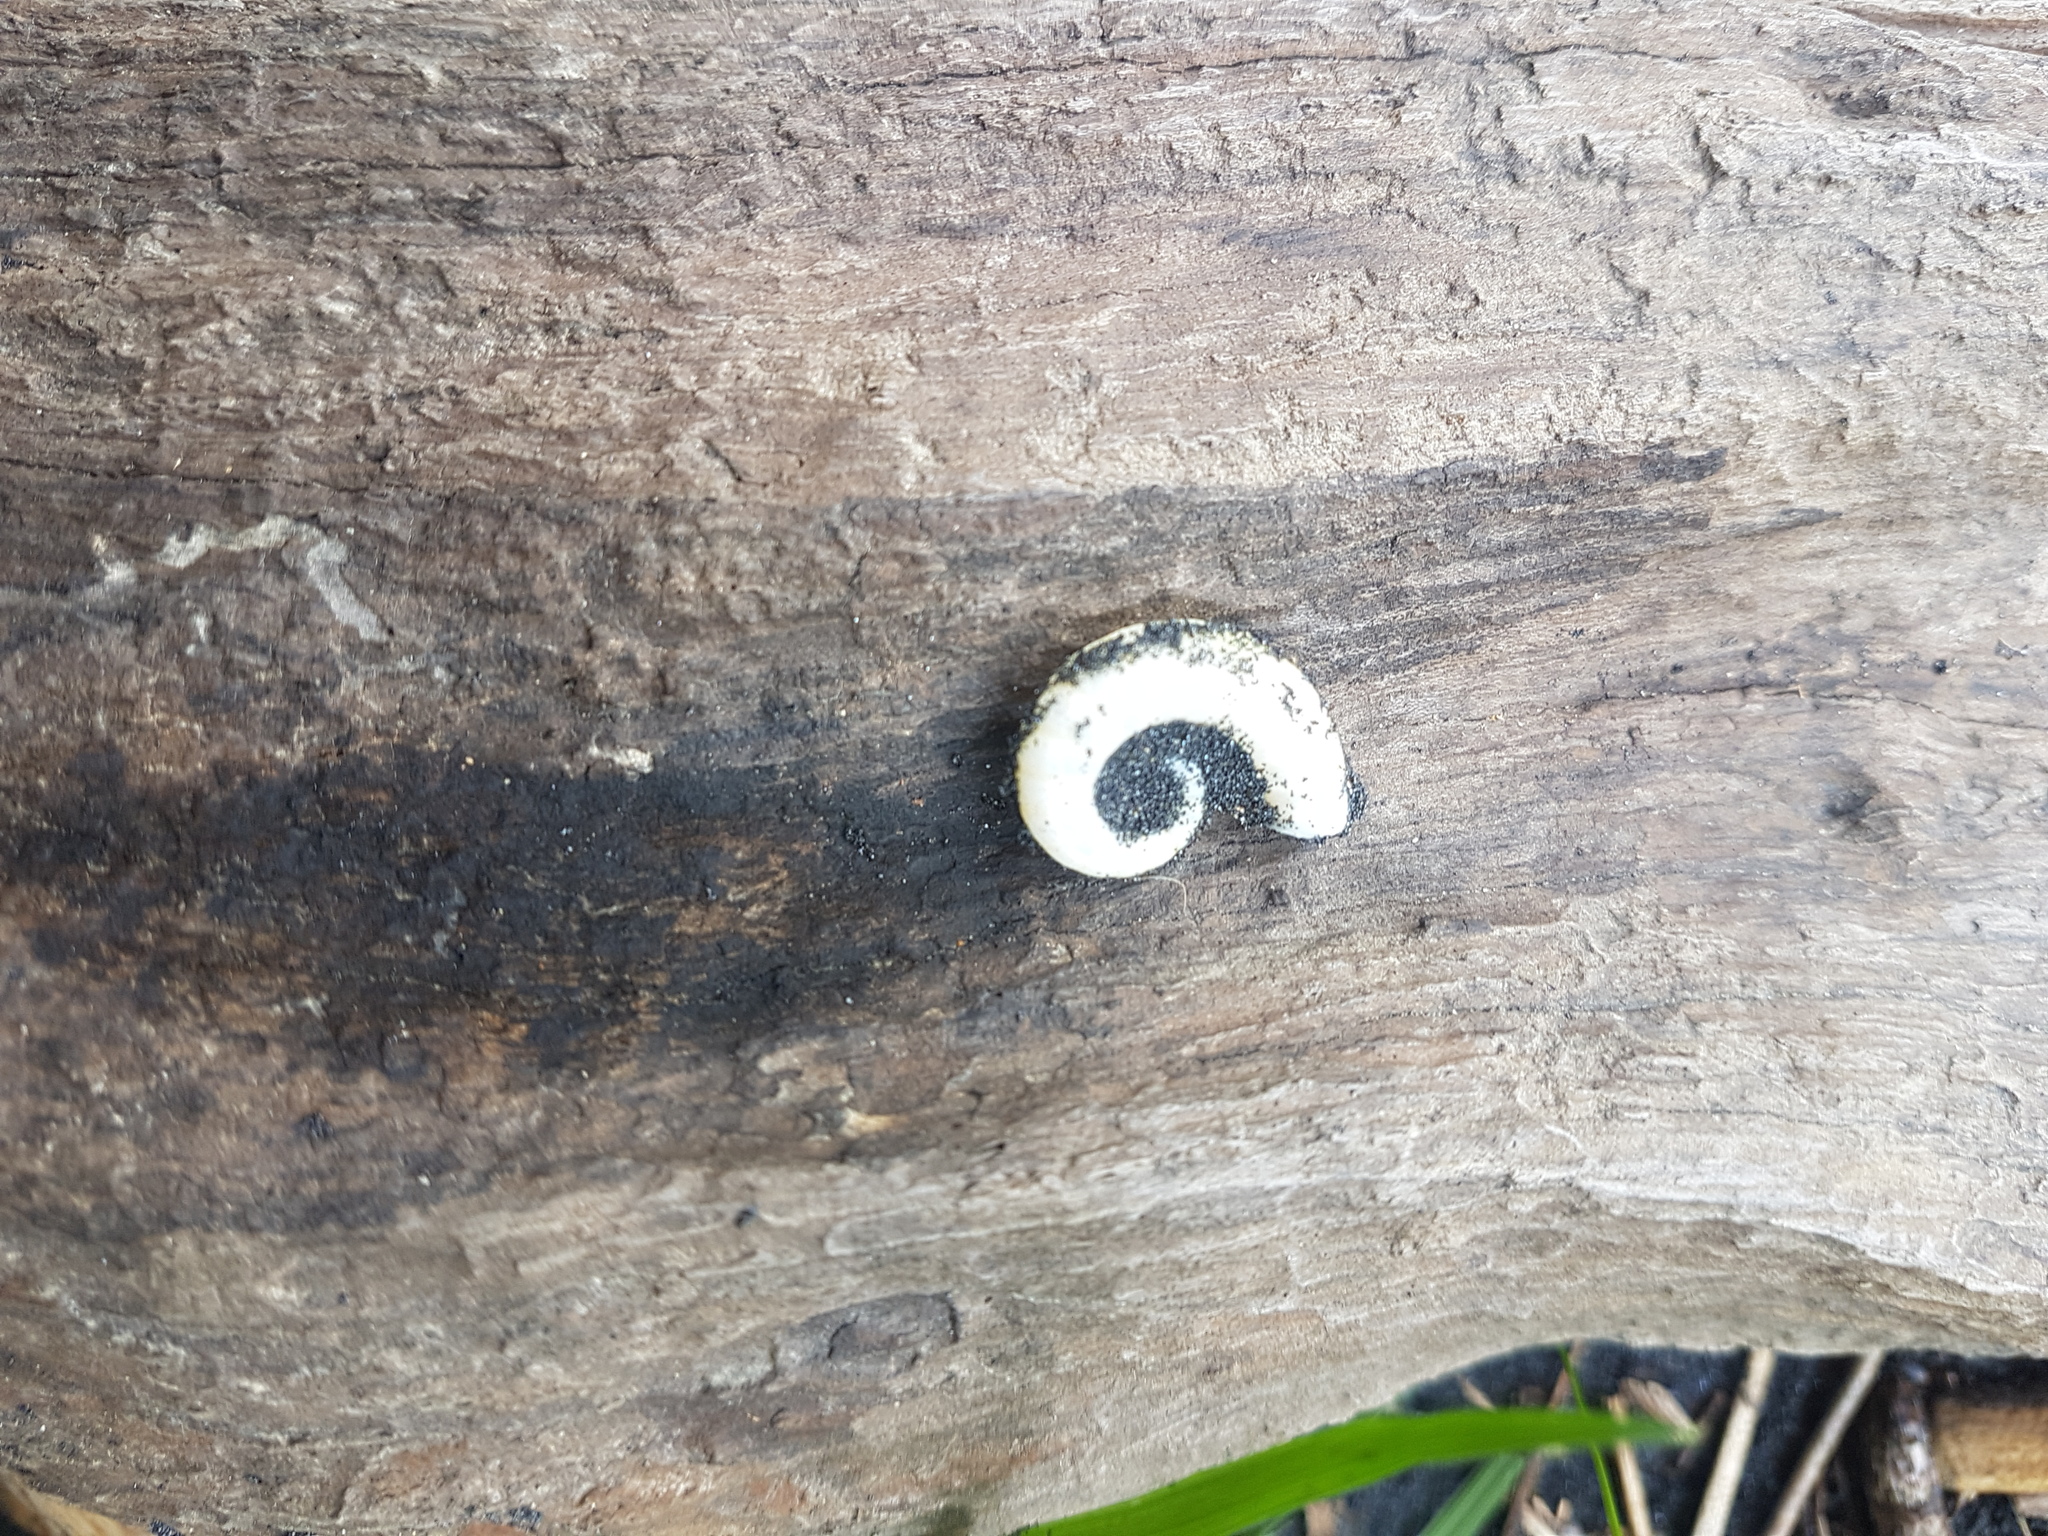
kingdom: Animalia
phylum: Mollusca
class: Cephalopoda
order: Spirulida
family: Spirulidae
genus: Spirula
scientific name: Spirula spirula
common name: Ram's horn squid
